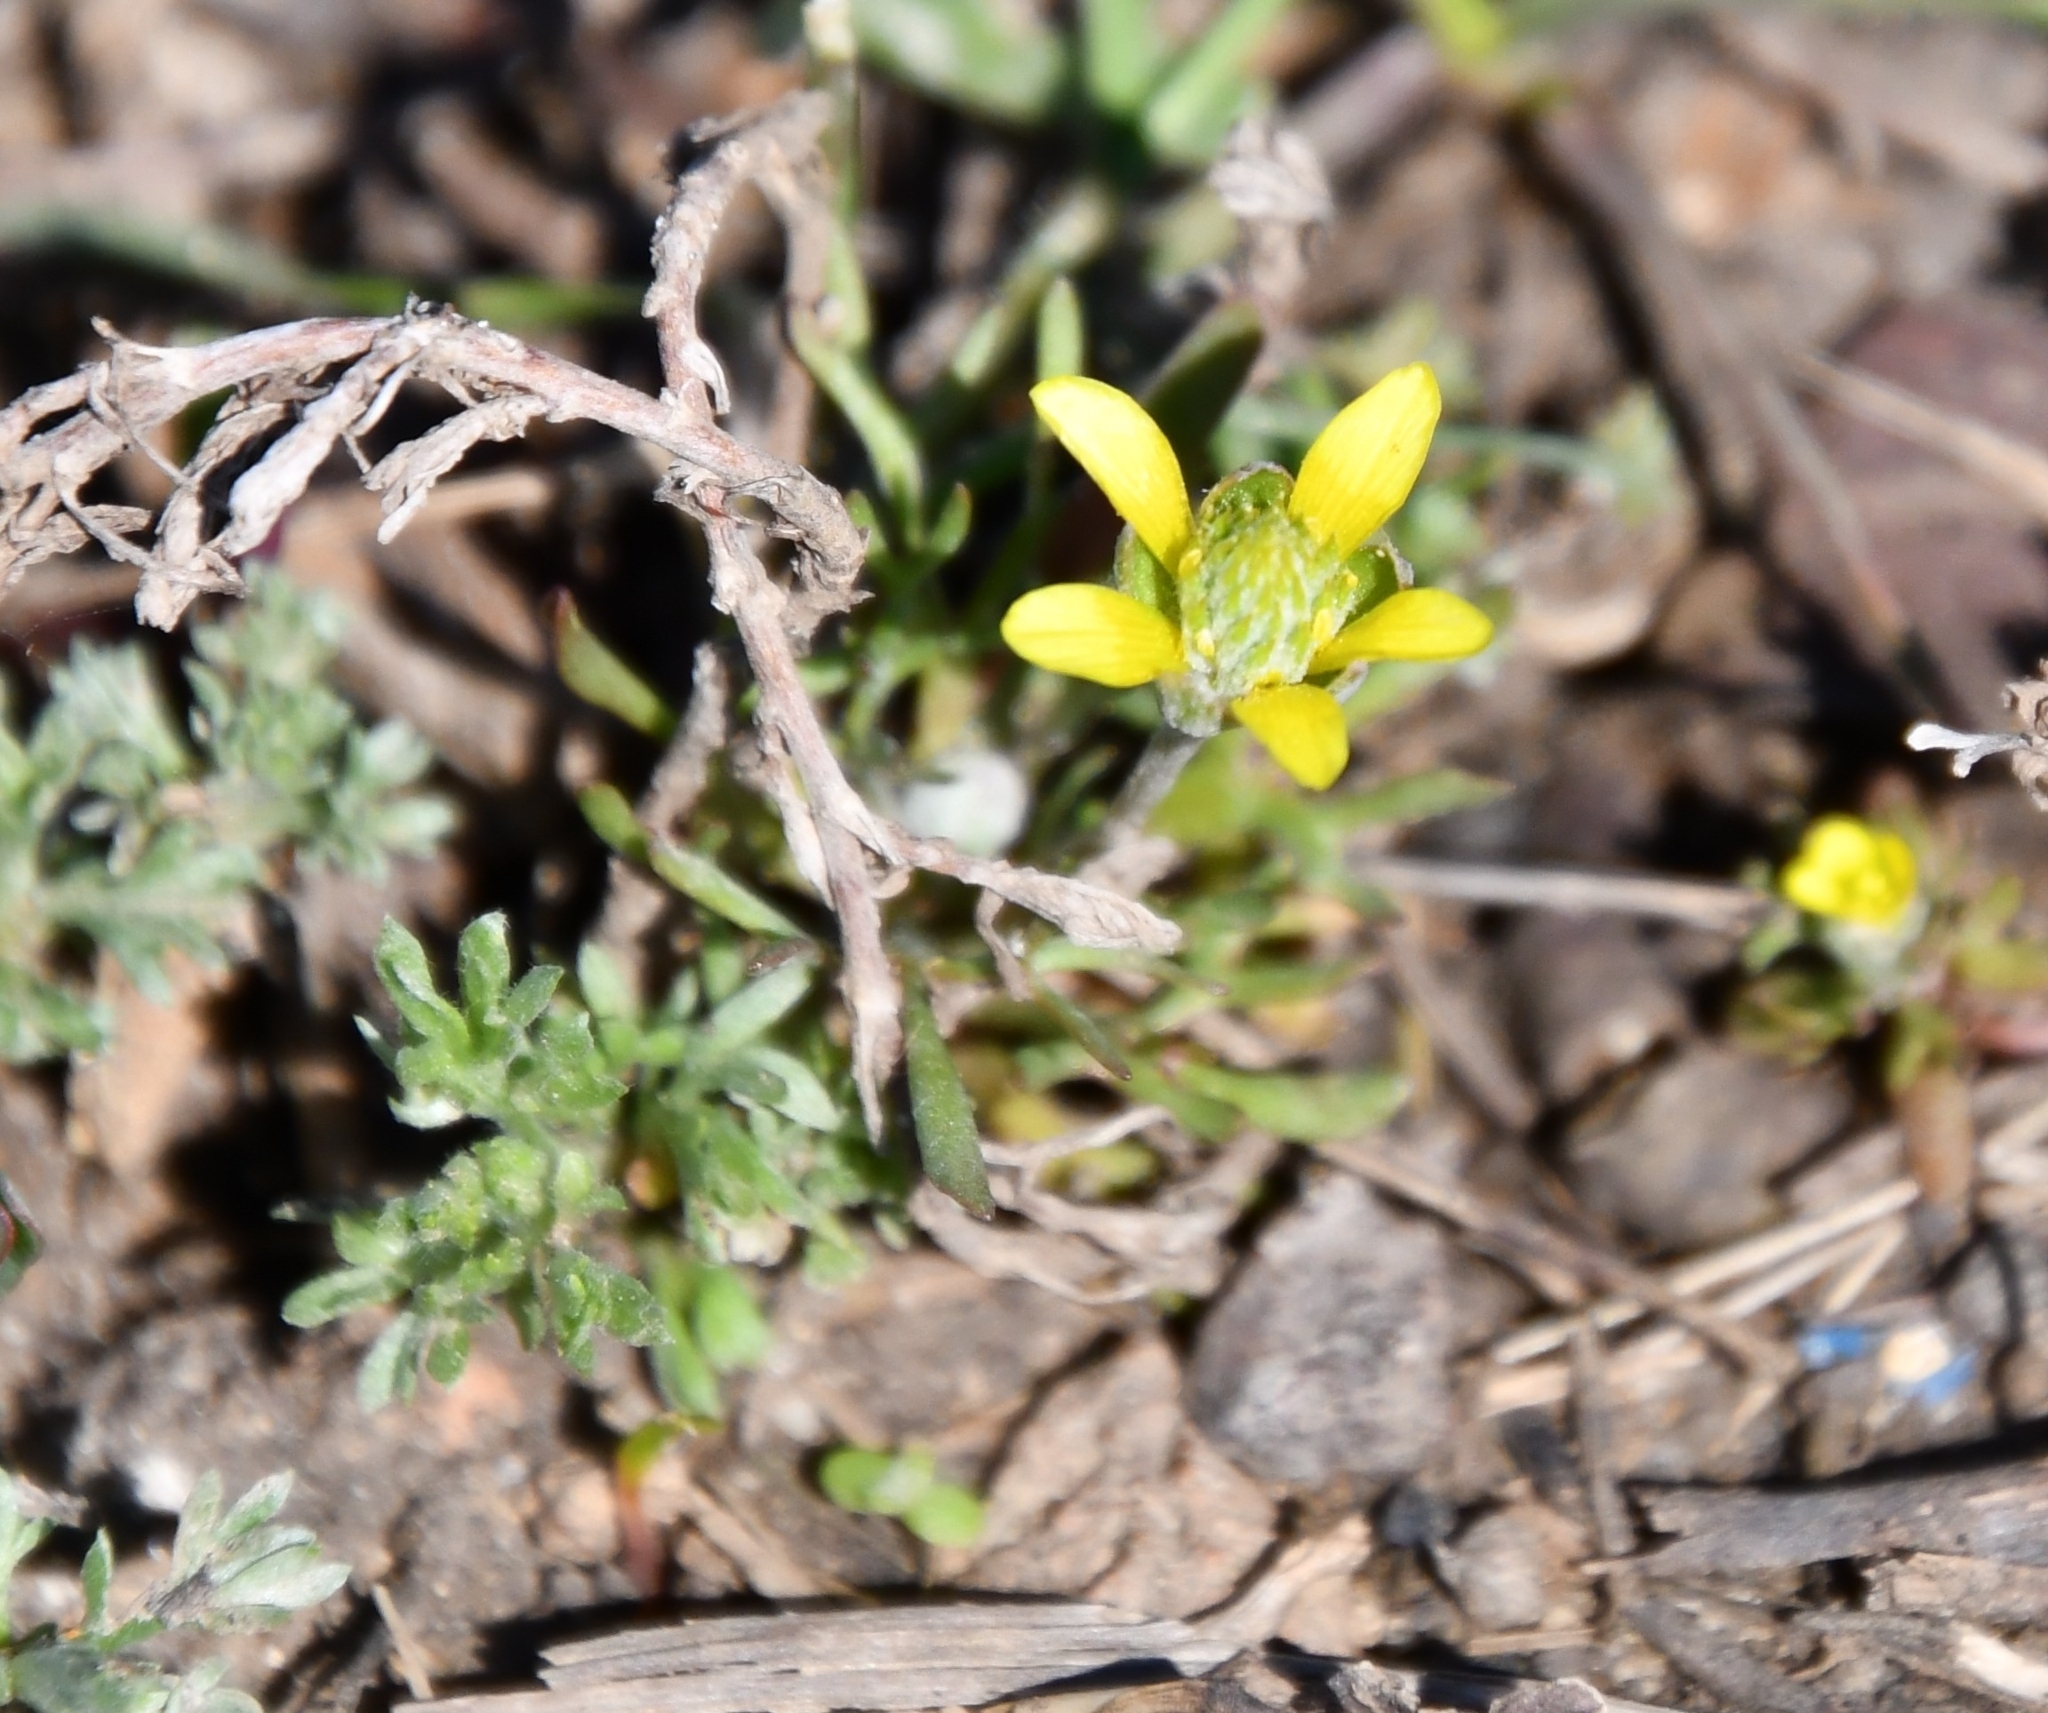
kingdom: Plantae
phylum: Tracheophyta
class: Magnoliopsida
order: Ranunculales
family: Ranunculaceae
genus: Ceratocephala
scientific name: Ceratocephala orthoceras
